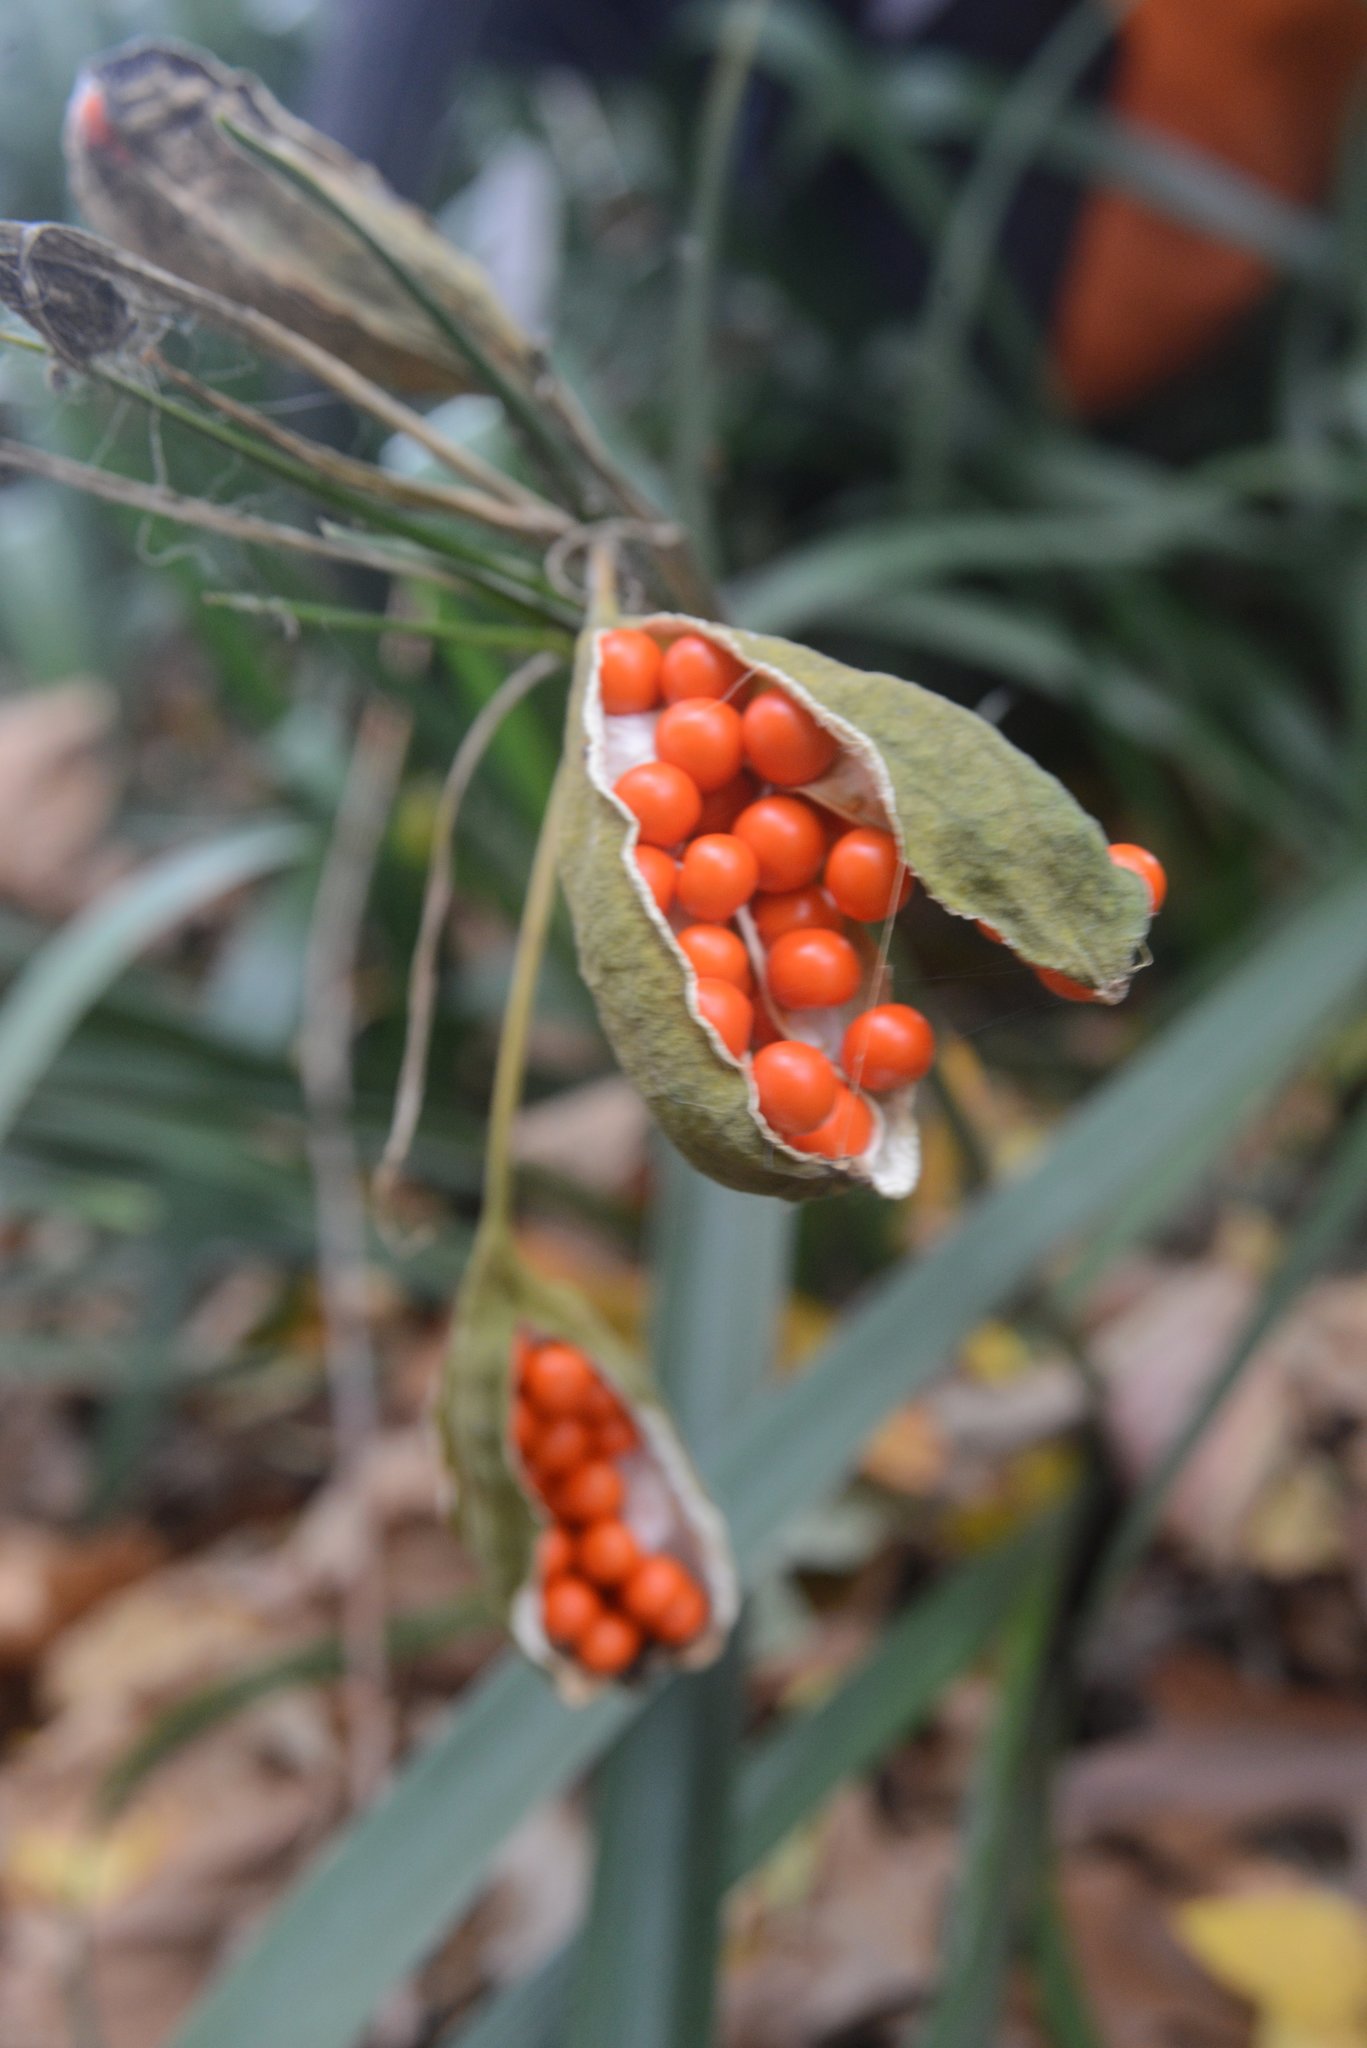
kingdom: Plantae
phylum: Tracheophyta
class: Liliopsida
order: Asparagales
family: Iridaceae
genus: Iris
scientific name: Iris foetidissima
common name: Stinking iris
